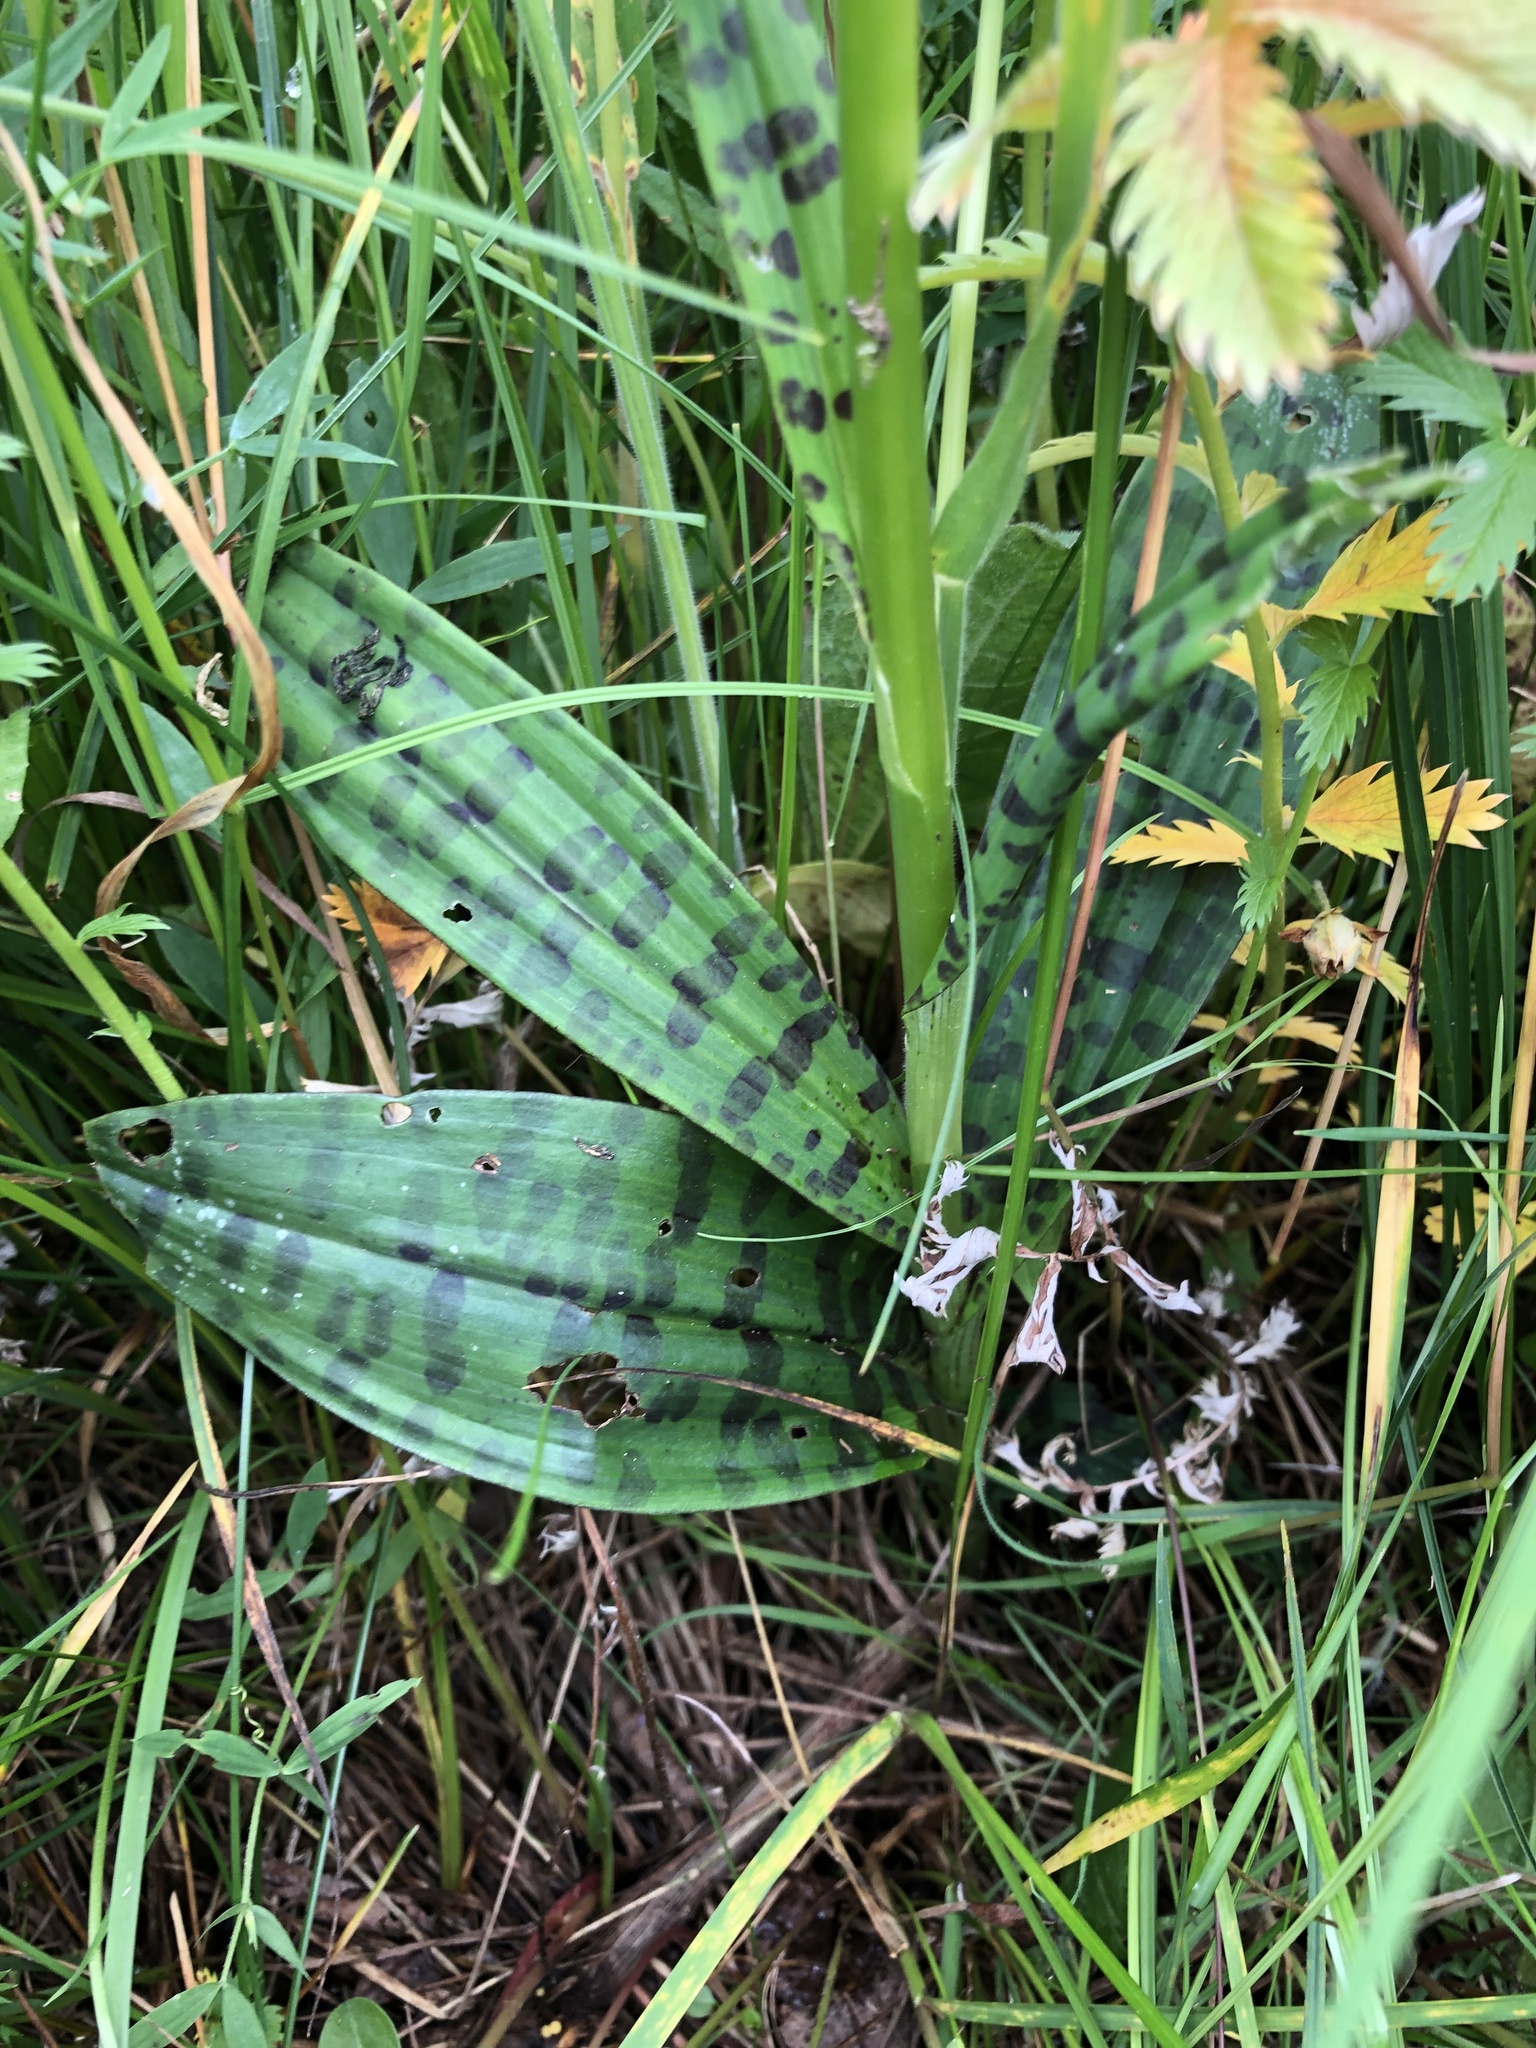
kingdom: Plantae
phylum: Tracheophyta
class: Liliopsida
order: Asparagales
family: Orchidaceae
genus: Dactylorhiza
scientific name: Dactylorhiza maculata
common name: Heath spotted-orchid
